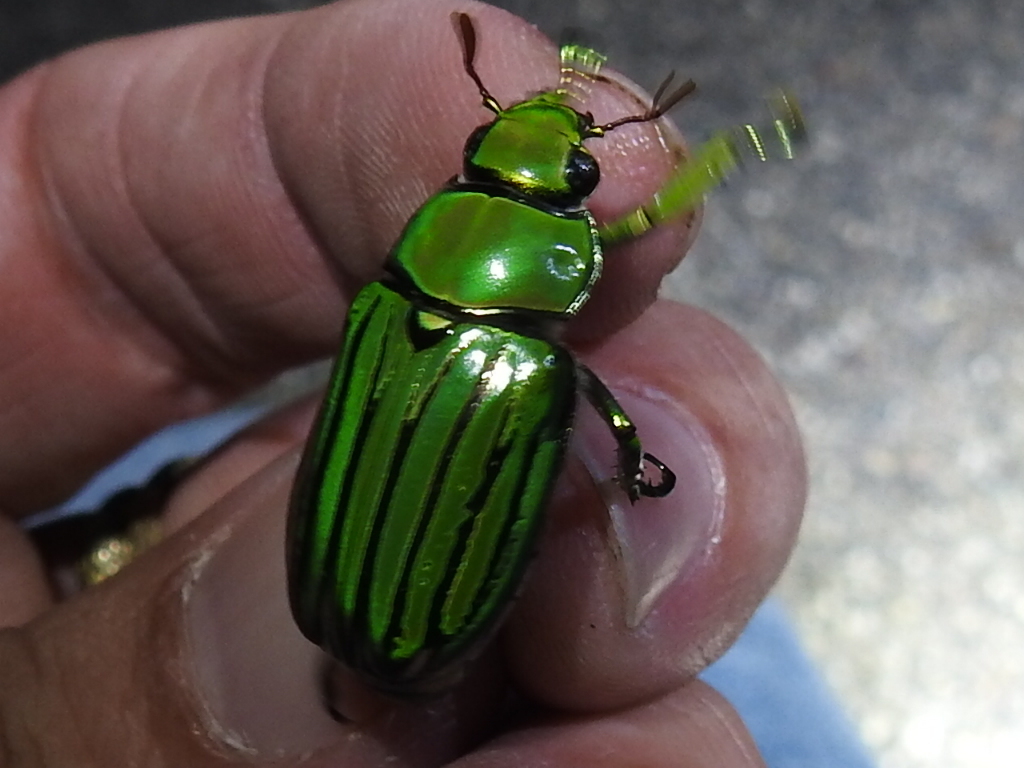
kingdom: Animalia
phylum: Arthropoda
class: Insecta
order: Coleoptera
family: Scarabaeidae
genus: Chrysina
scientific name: Chrysina gloriosa
